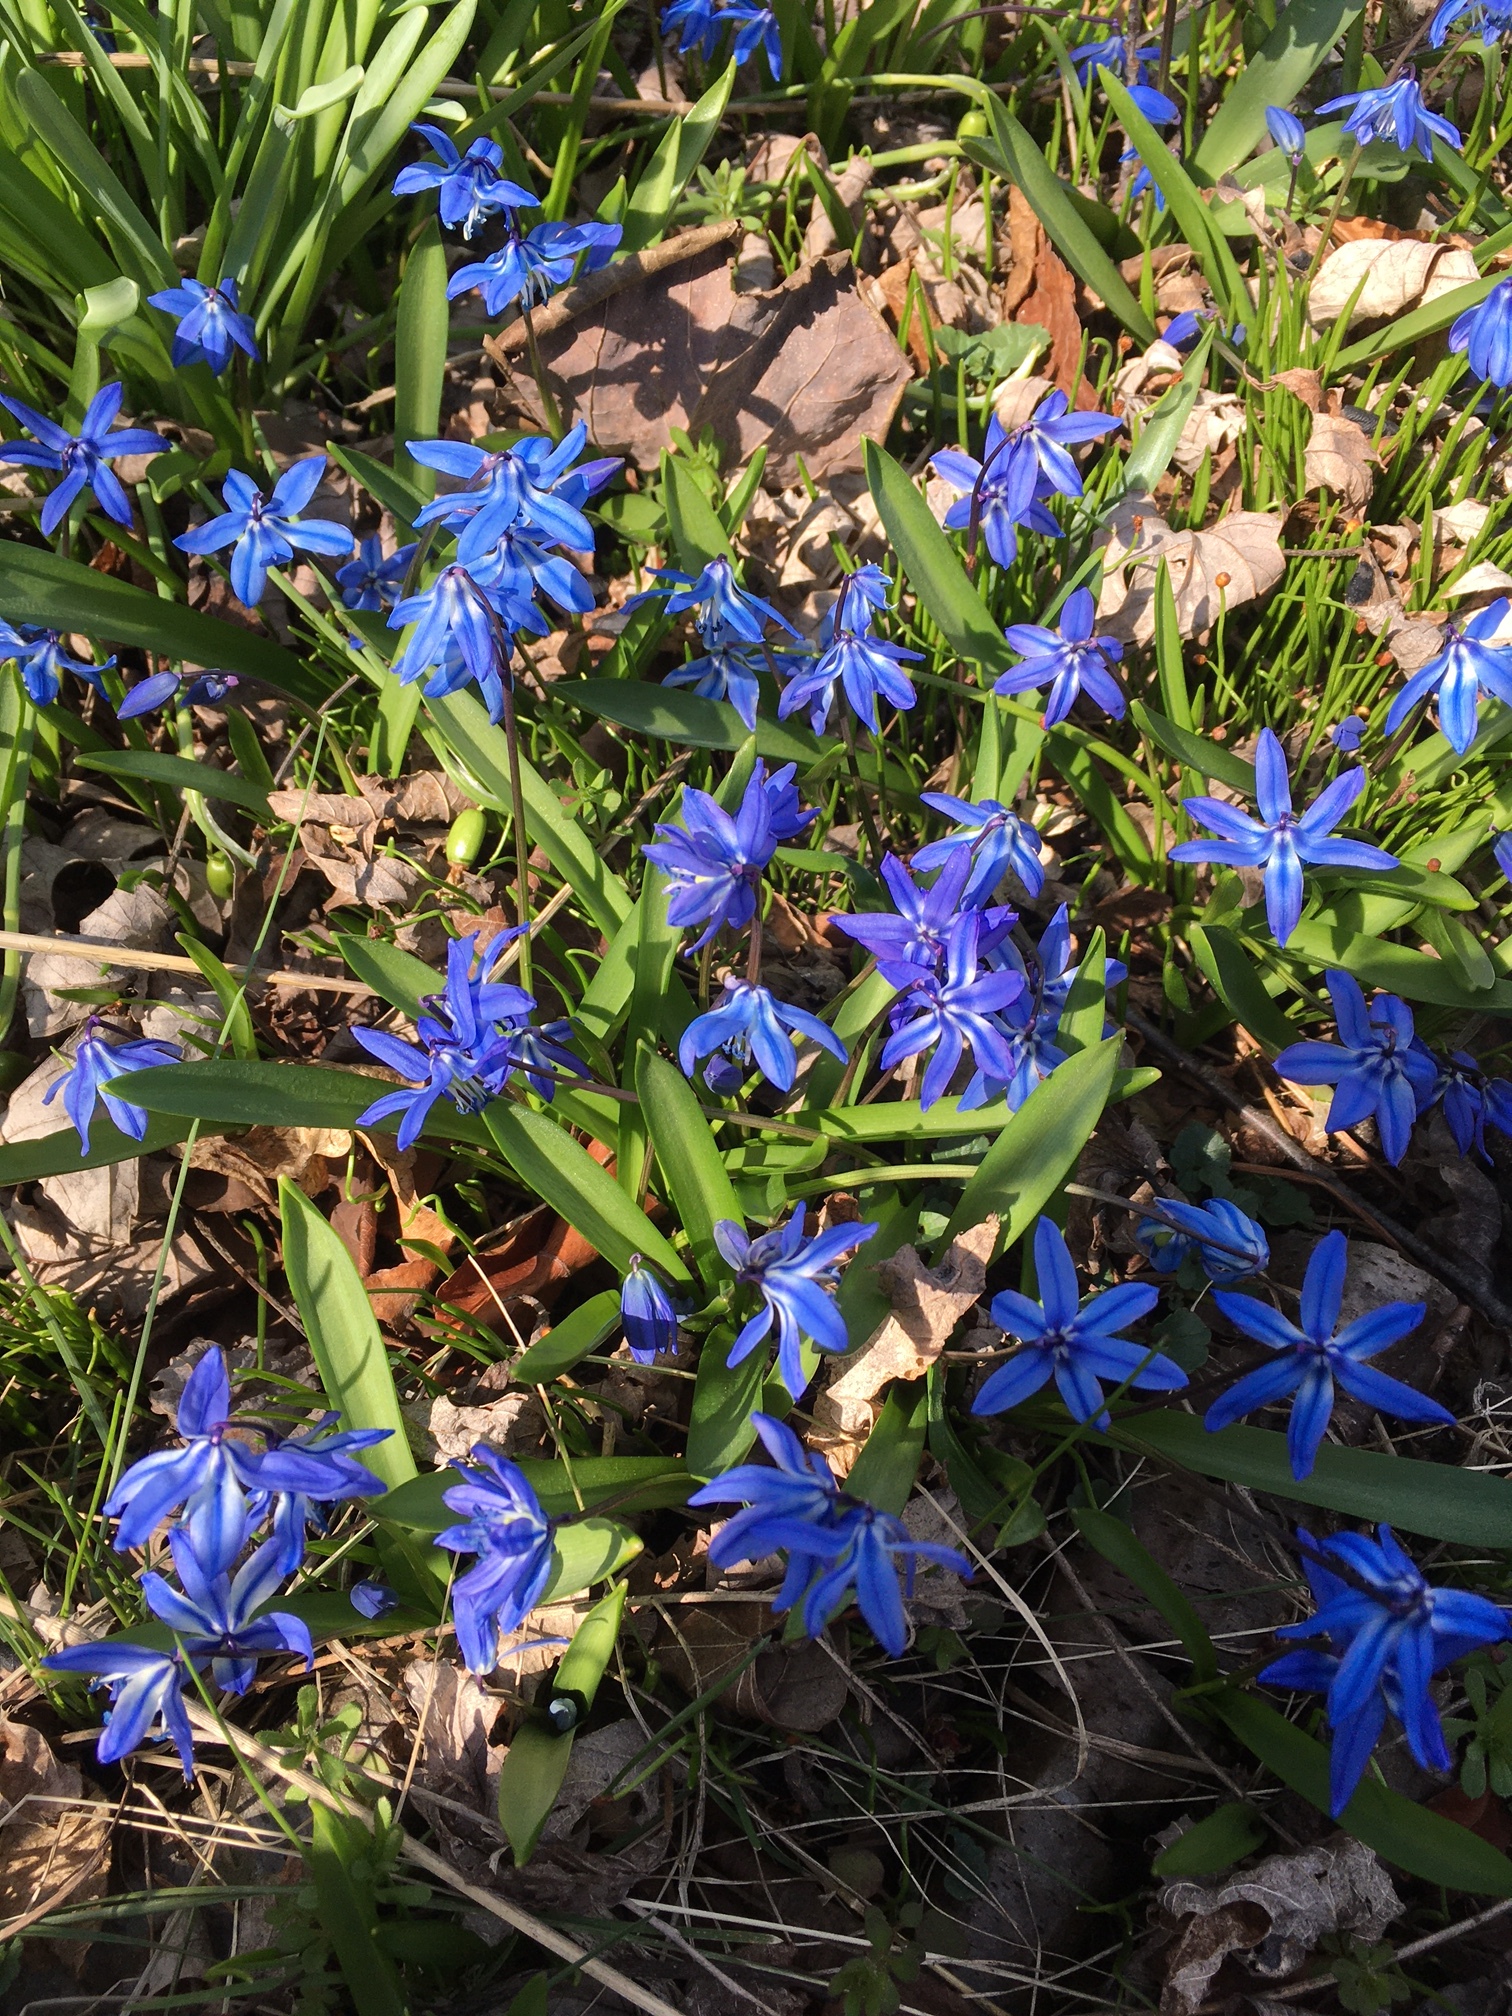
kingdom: Plantae
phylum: Tracheophyta
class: Liliopsida
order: Asparagales
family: Asparagaceae
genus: Scilla
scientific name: Scilla siberica
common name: Siberian squill
